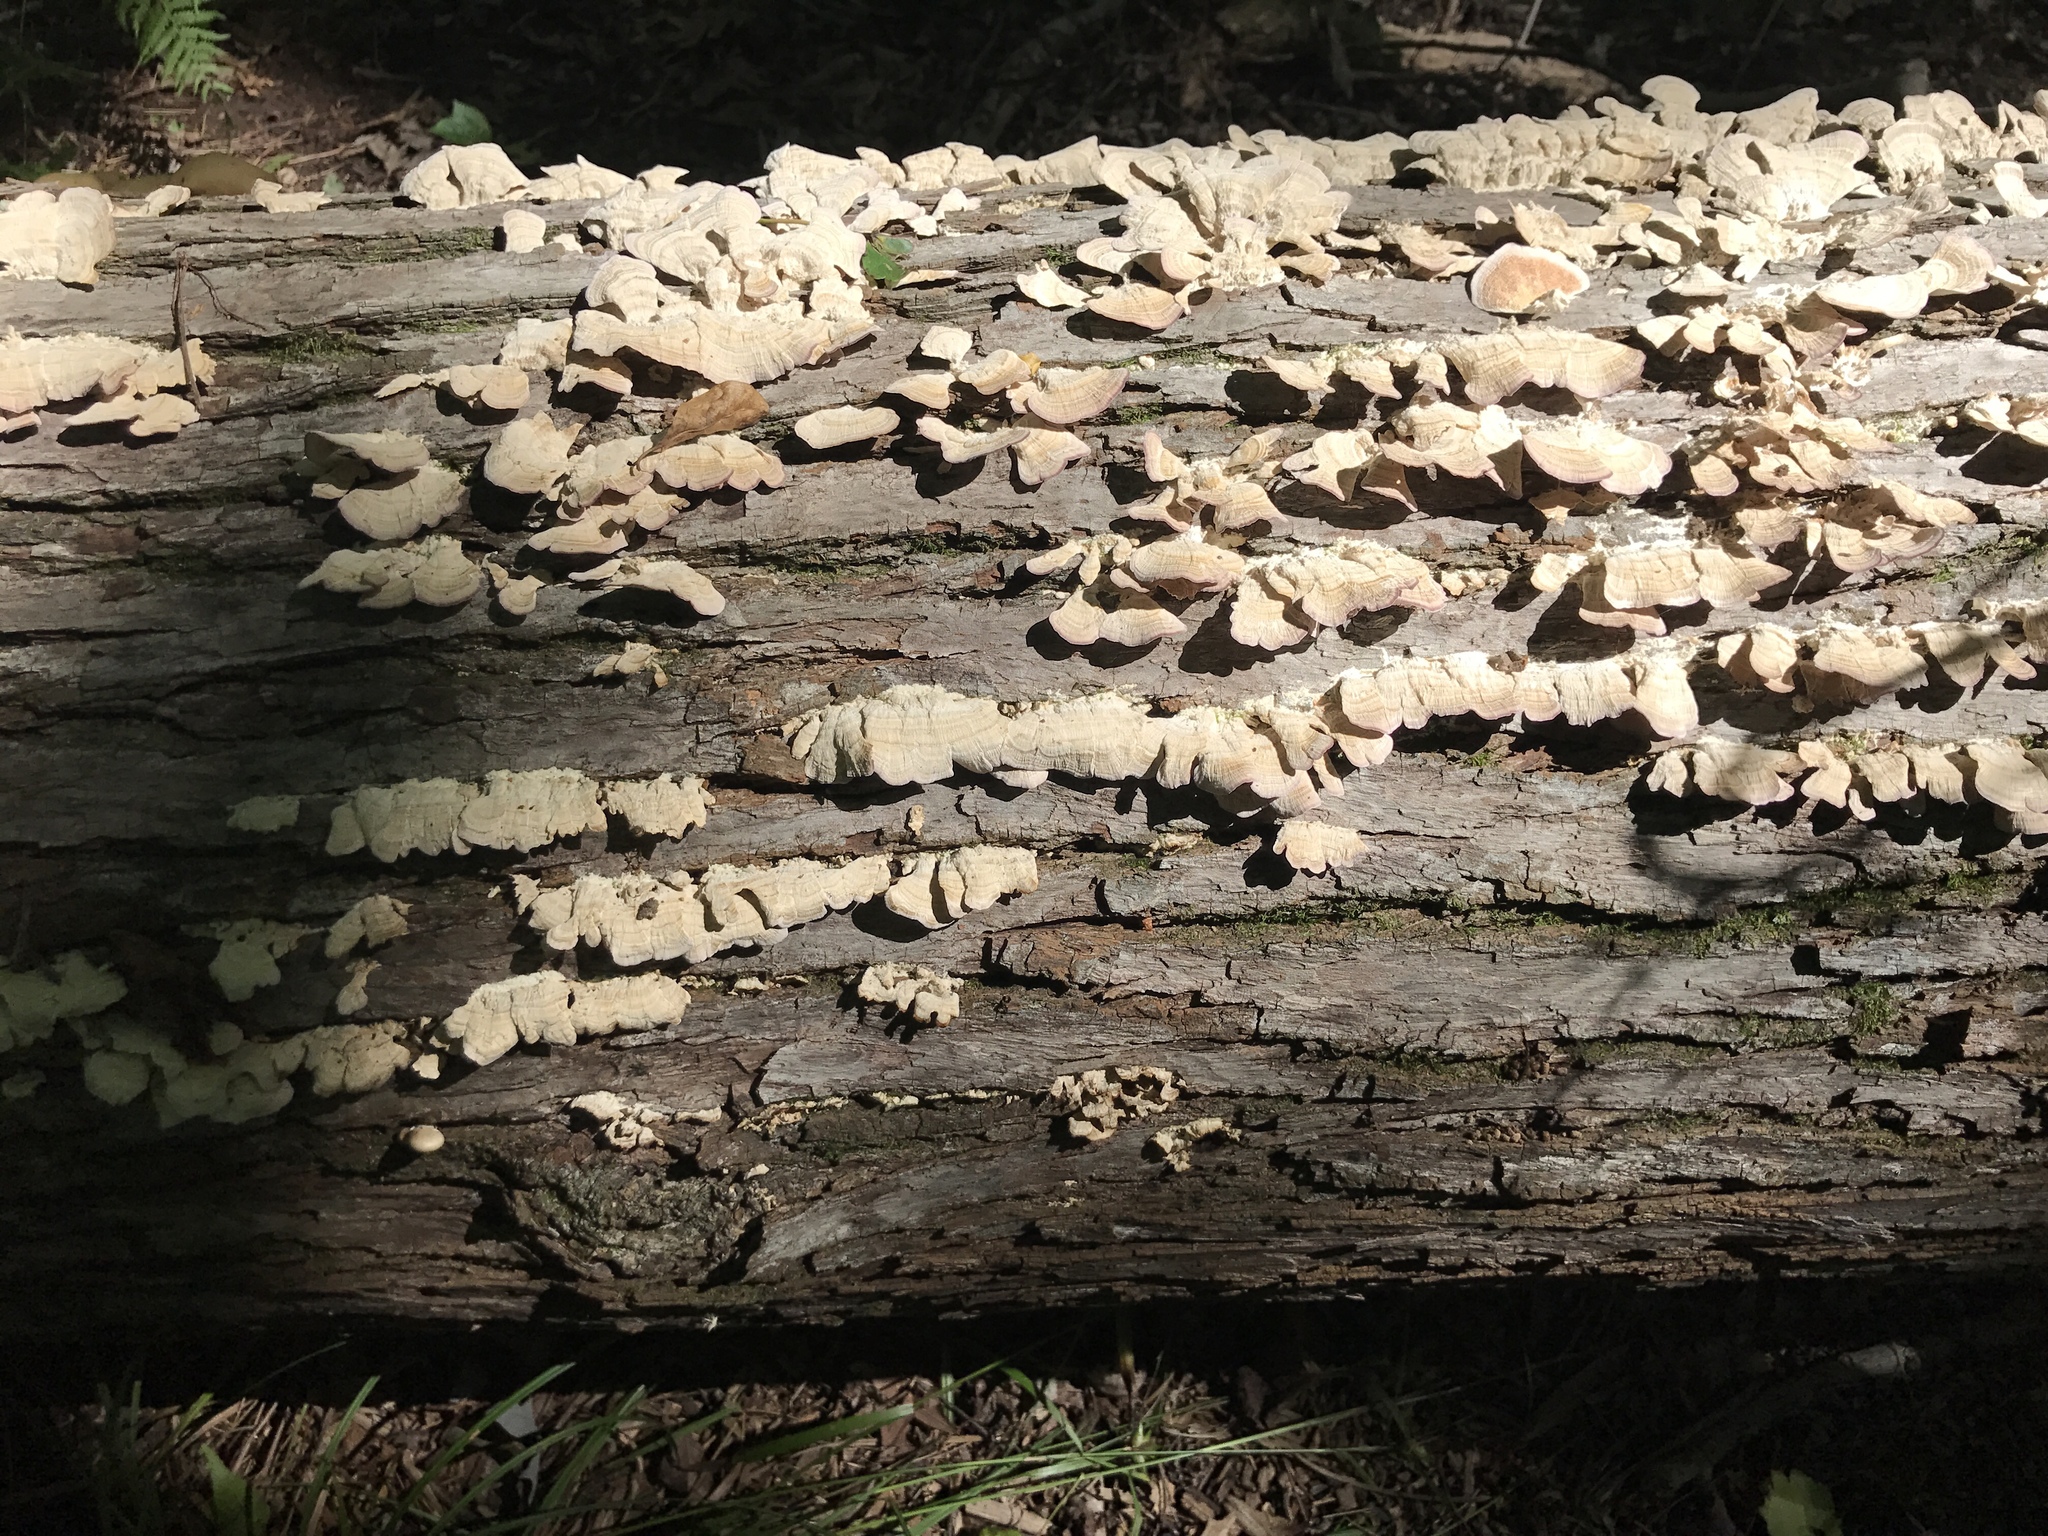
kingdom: Fungi
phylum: Basidiomycota
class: Agaricomycetes
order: Hymenochaetales
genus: Trichaptum
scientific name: Trichaptum biforme
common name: Violet-toothed polypore
